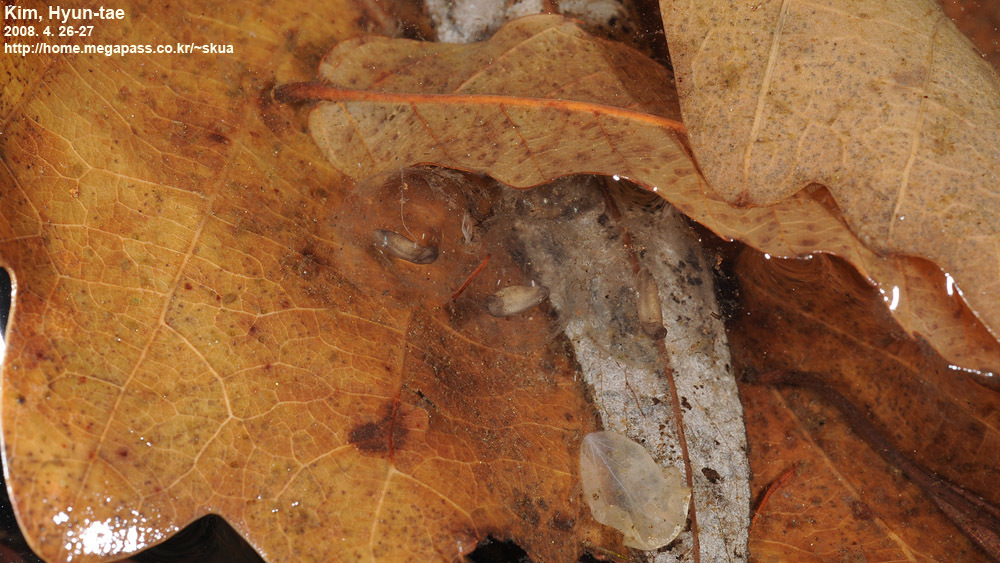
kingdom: Animalia
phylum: Chordata
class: Amphibia
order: Anura
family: Bombinatoridae
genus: Bombina
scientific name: Bombina orientalis
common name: Oriental firebelly toad
